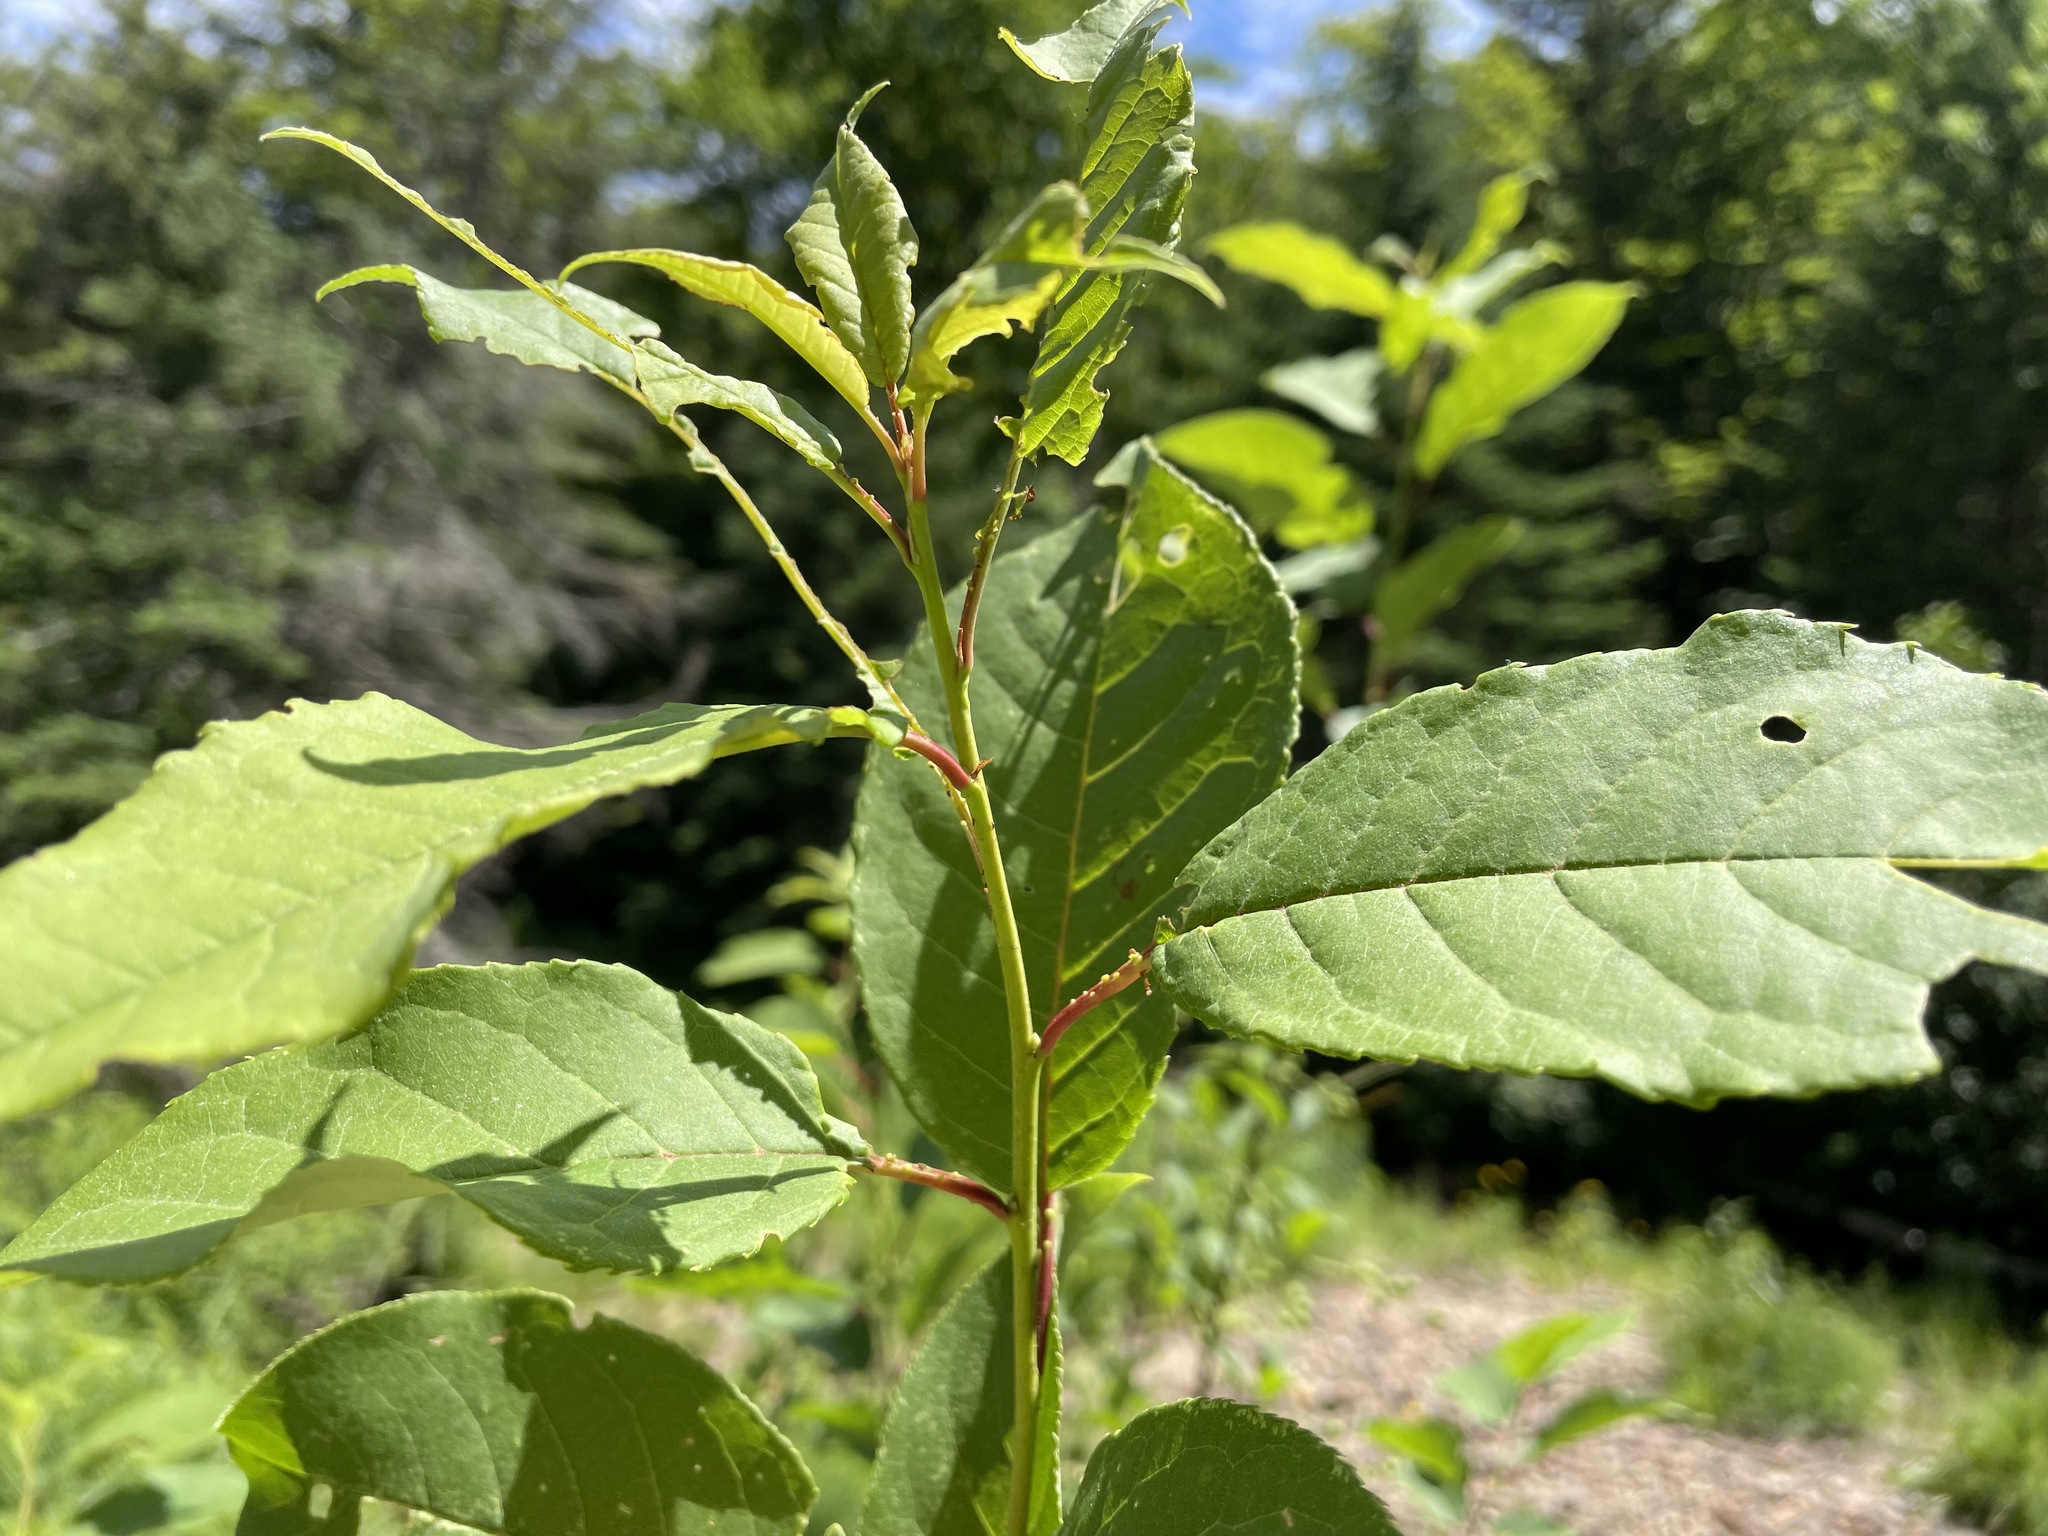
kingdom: Plantae
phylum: Tracheophyta
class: Magnoliopsida
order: Rosales
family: Rosaceae
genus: Prunus
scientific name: Prunus virginiana
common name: Chokecherry
